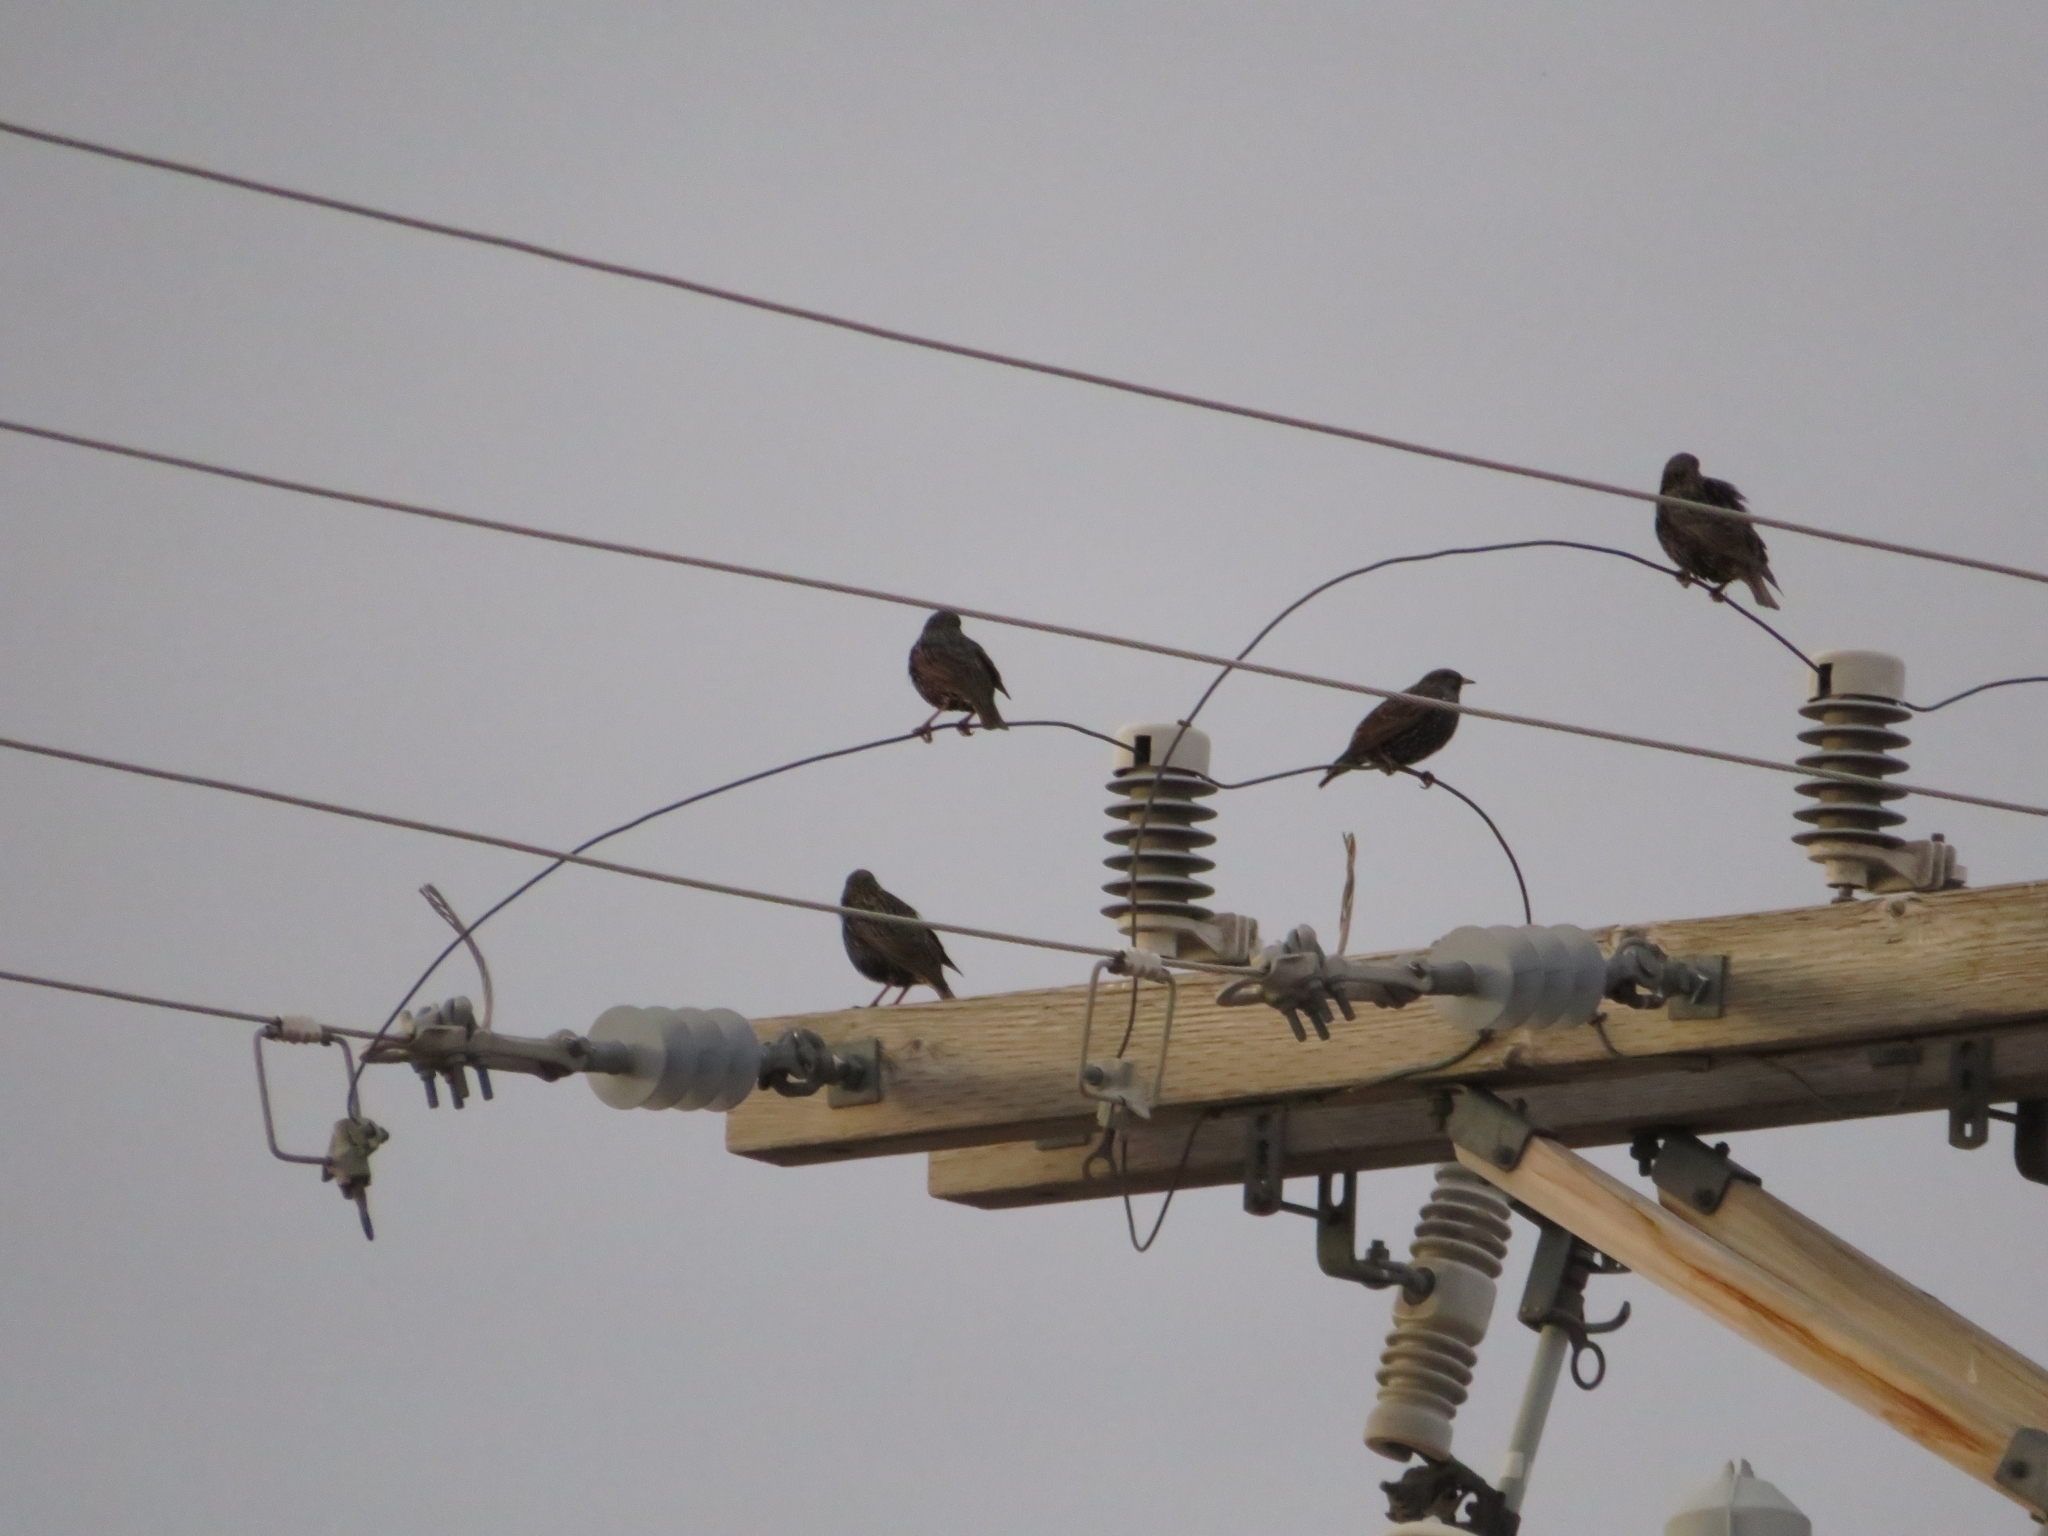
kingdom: Animalia
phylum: Chordata
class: Aves
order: Passeriformes
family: Sturnidae
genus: Sturnus
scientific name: Sturnus vulgaris
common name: Common starling
